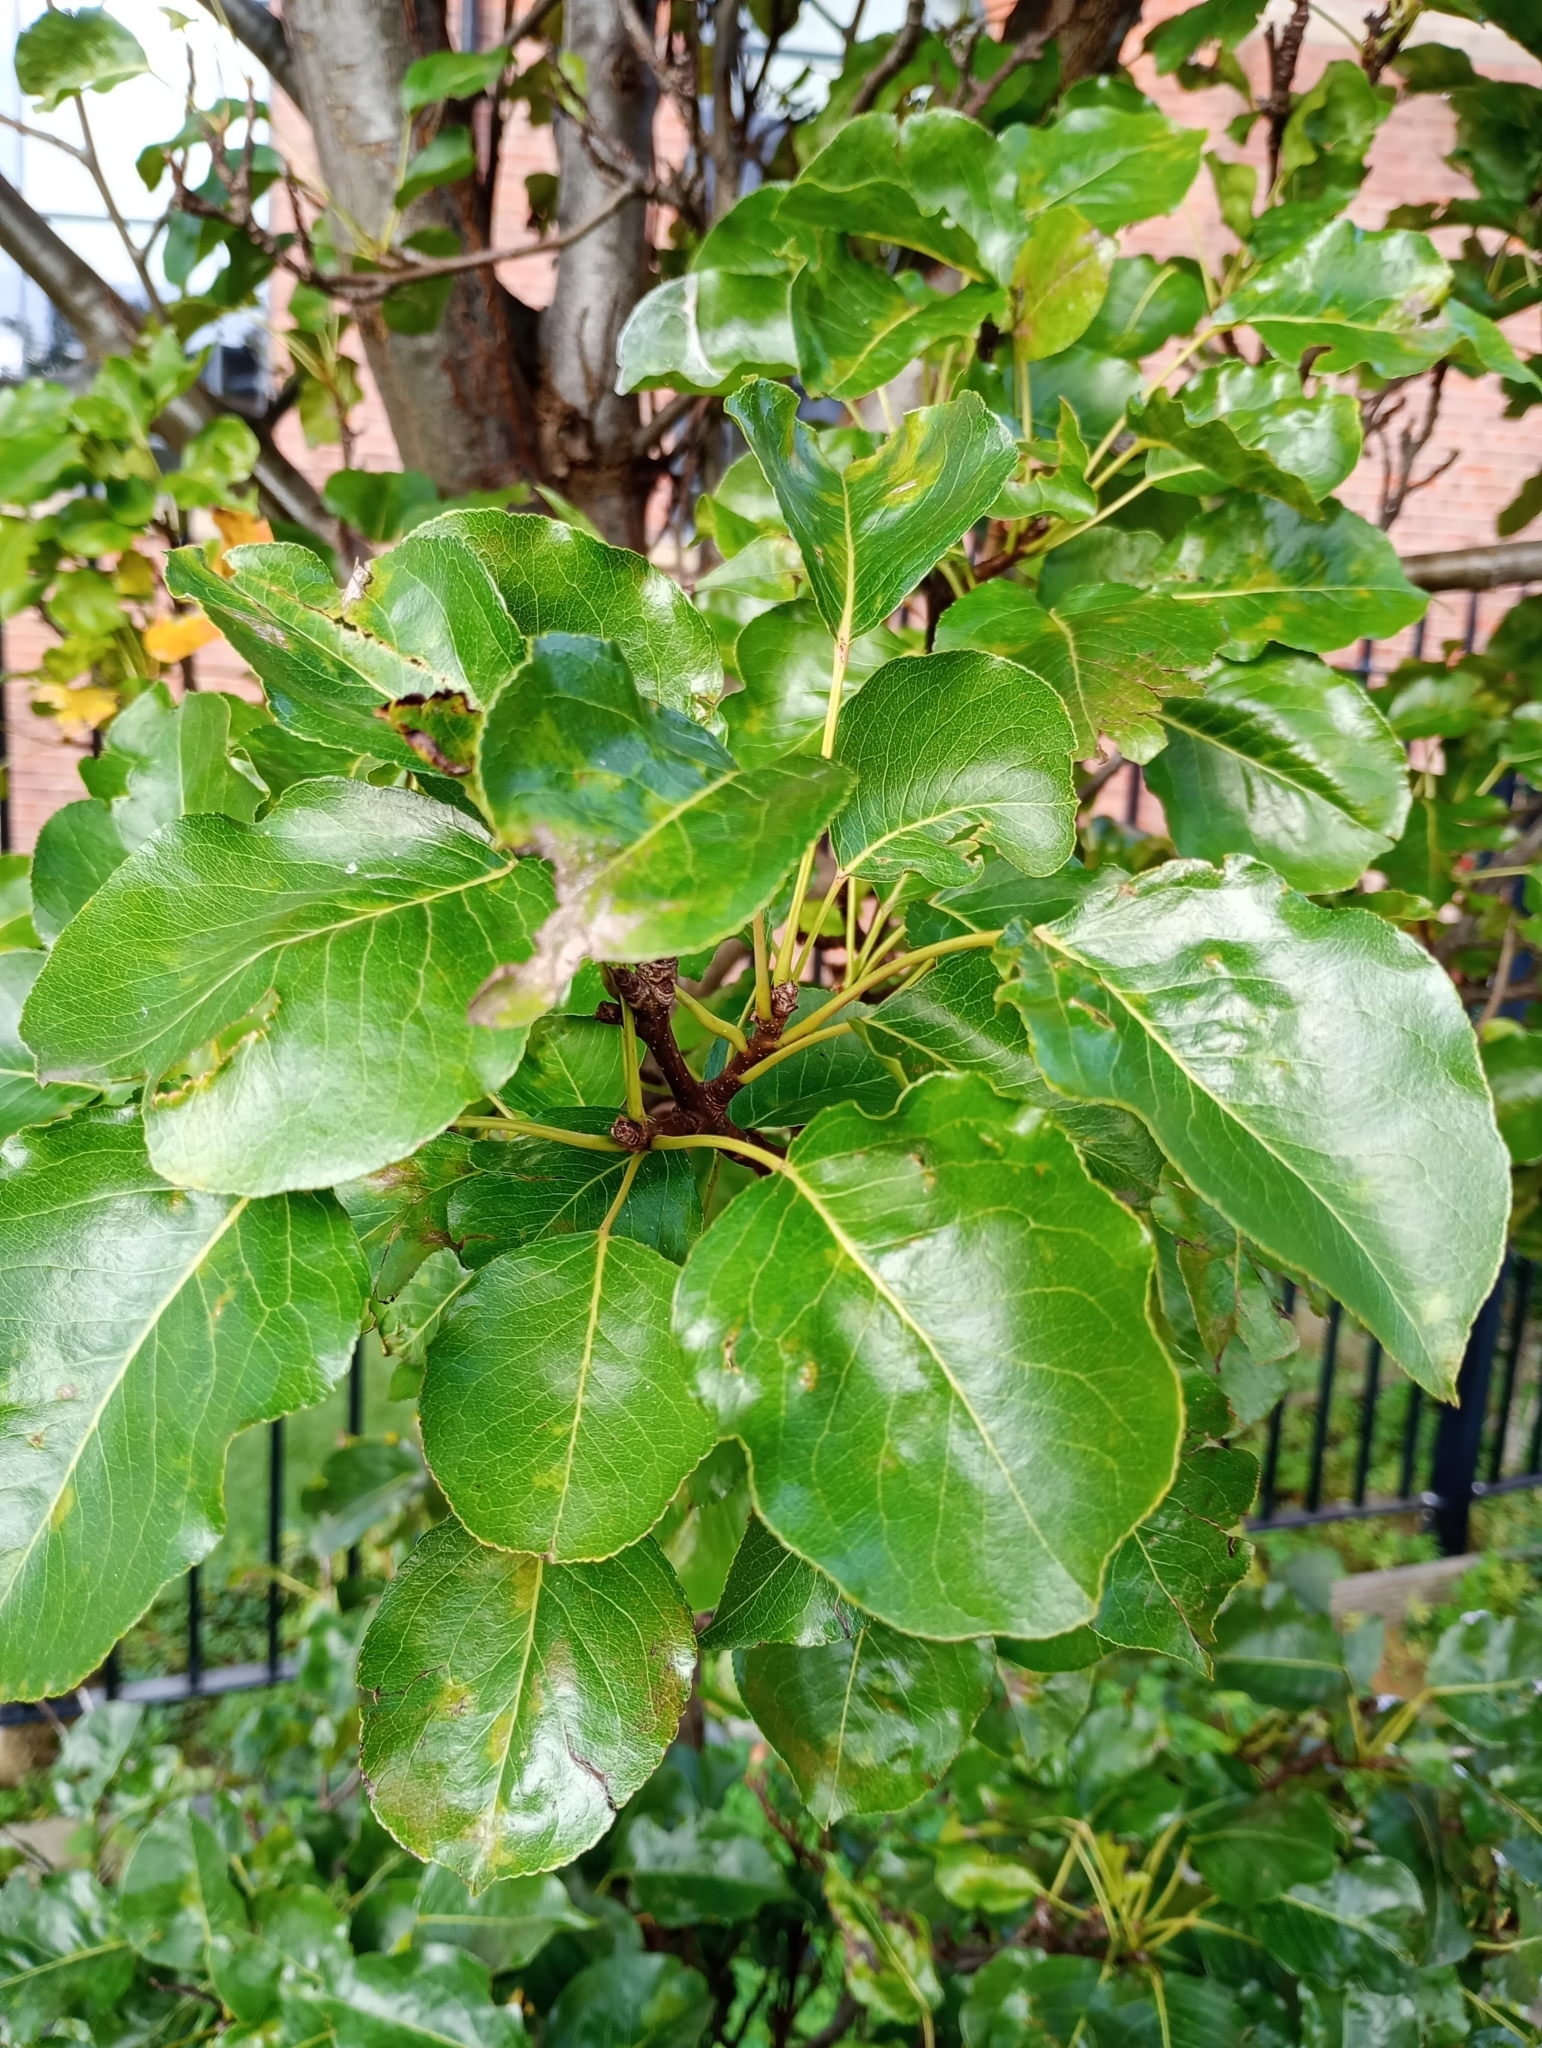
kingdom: Plantae
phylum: Tracheophyta
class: Magnoliopsida
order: Rosales
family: Rosaceae
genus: Pyrus
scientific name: Pyrus communis
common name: Pear
